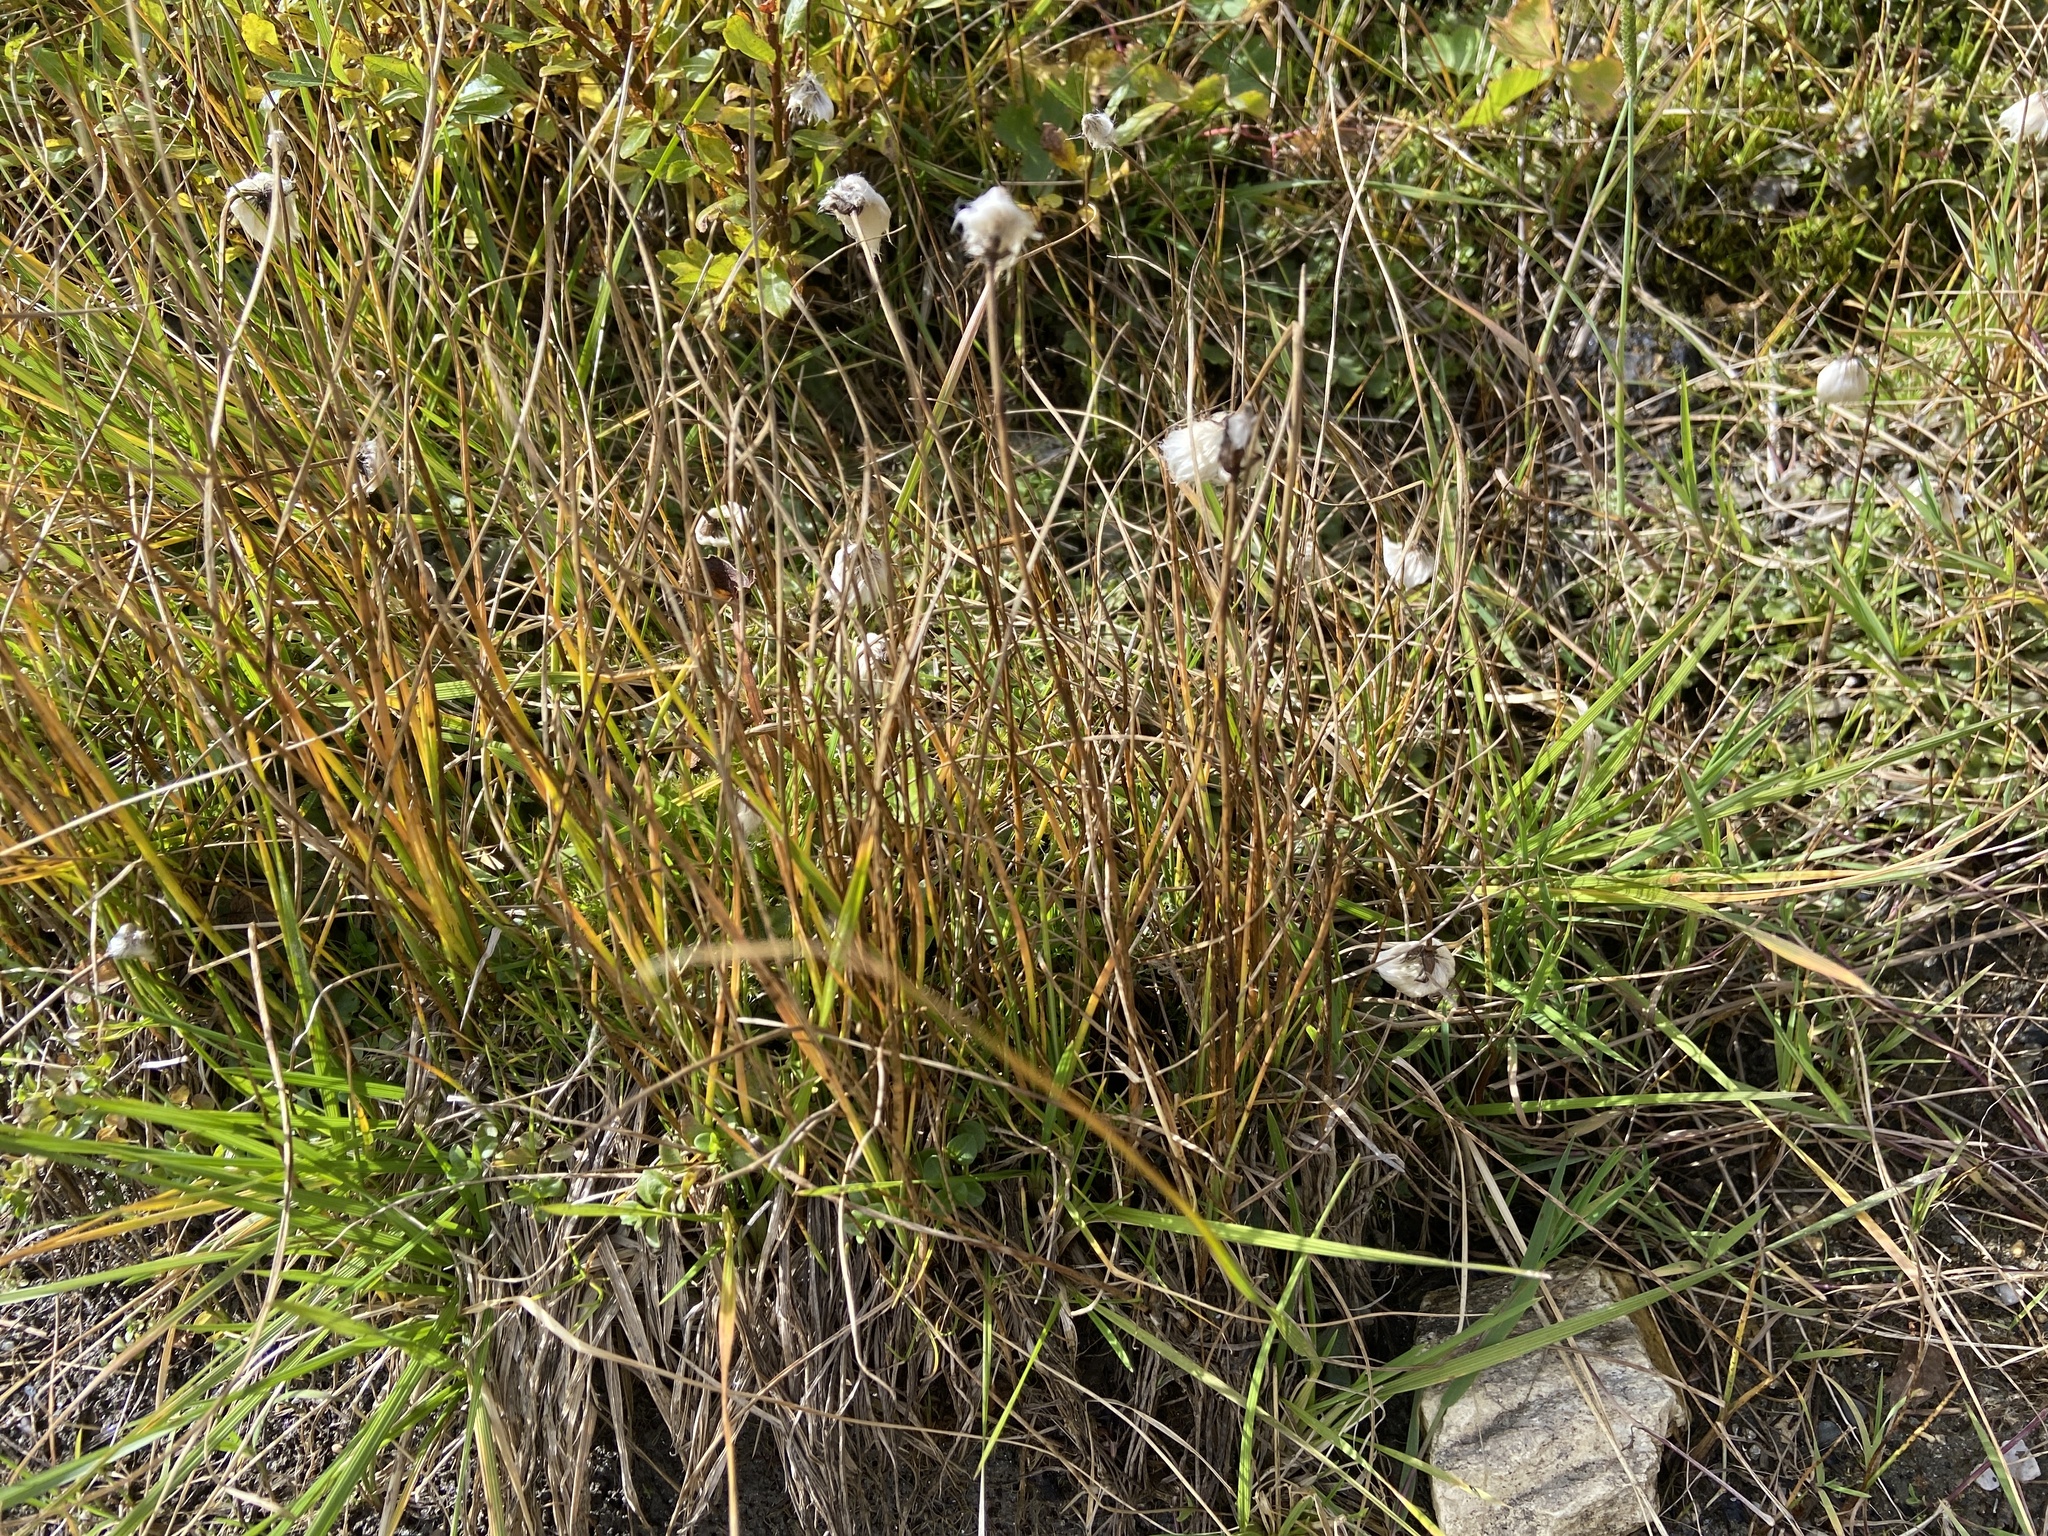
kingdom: Plantae
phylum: Tracheophyta
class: Liliopsida
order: Poales
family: Cyperaceae
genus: Eriophorum
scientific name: Eriophorum scheuchzeri
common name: Scheuchzer's cottongrass
